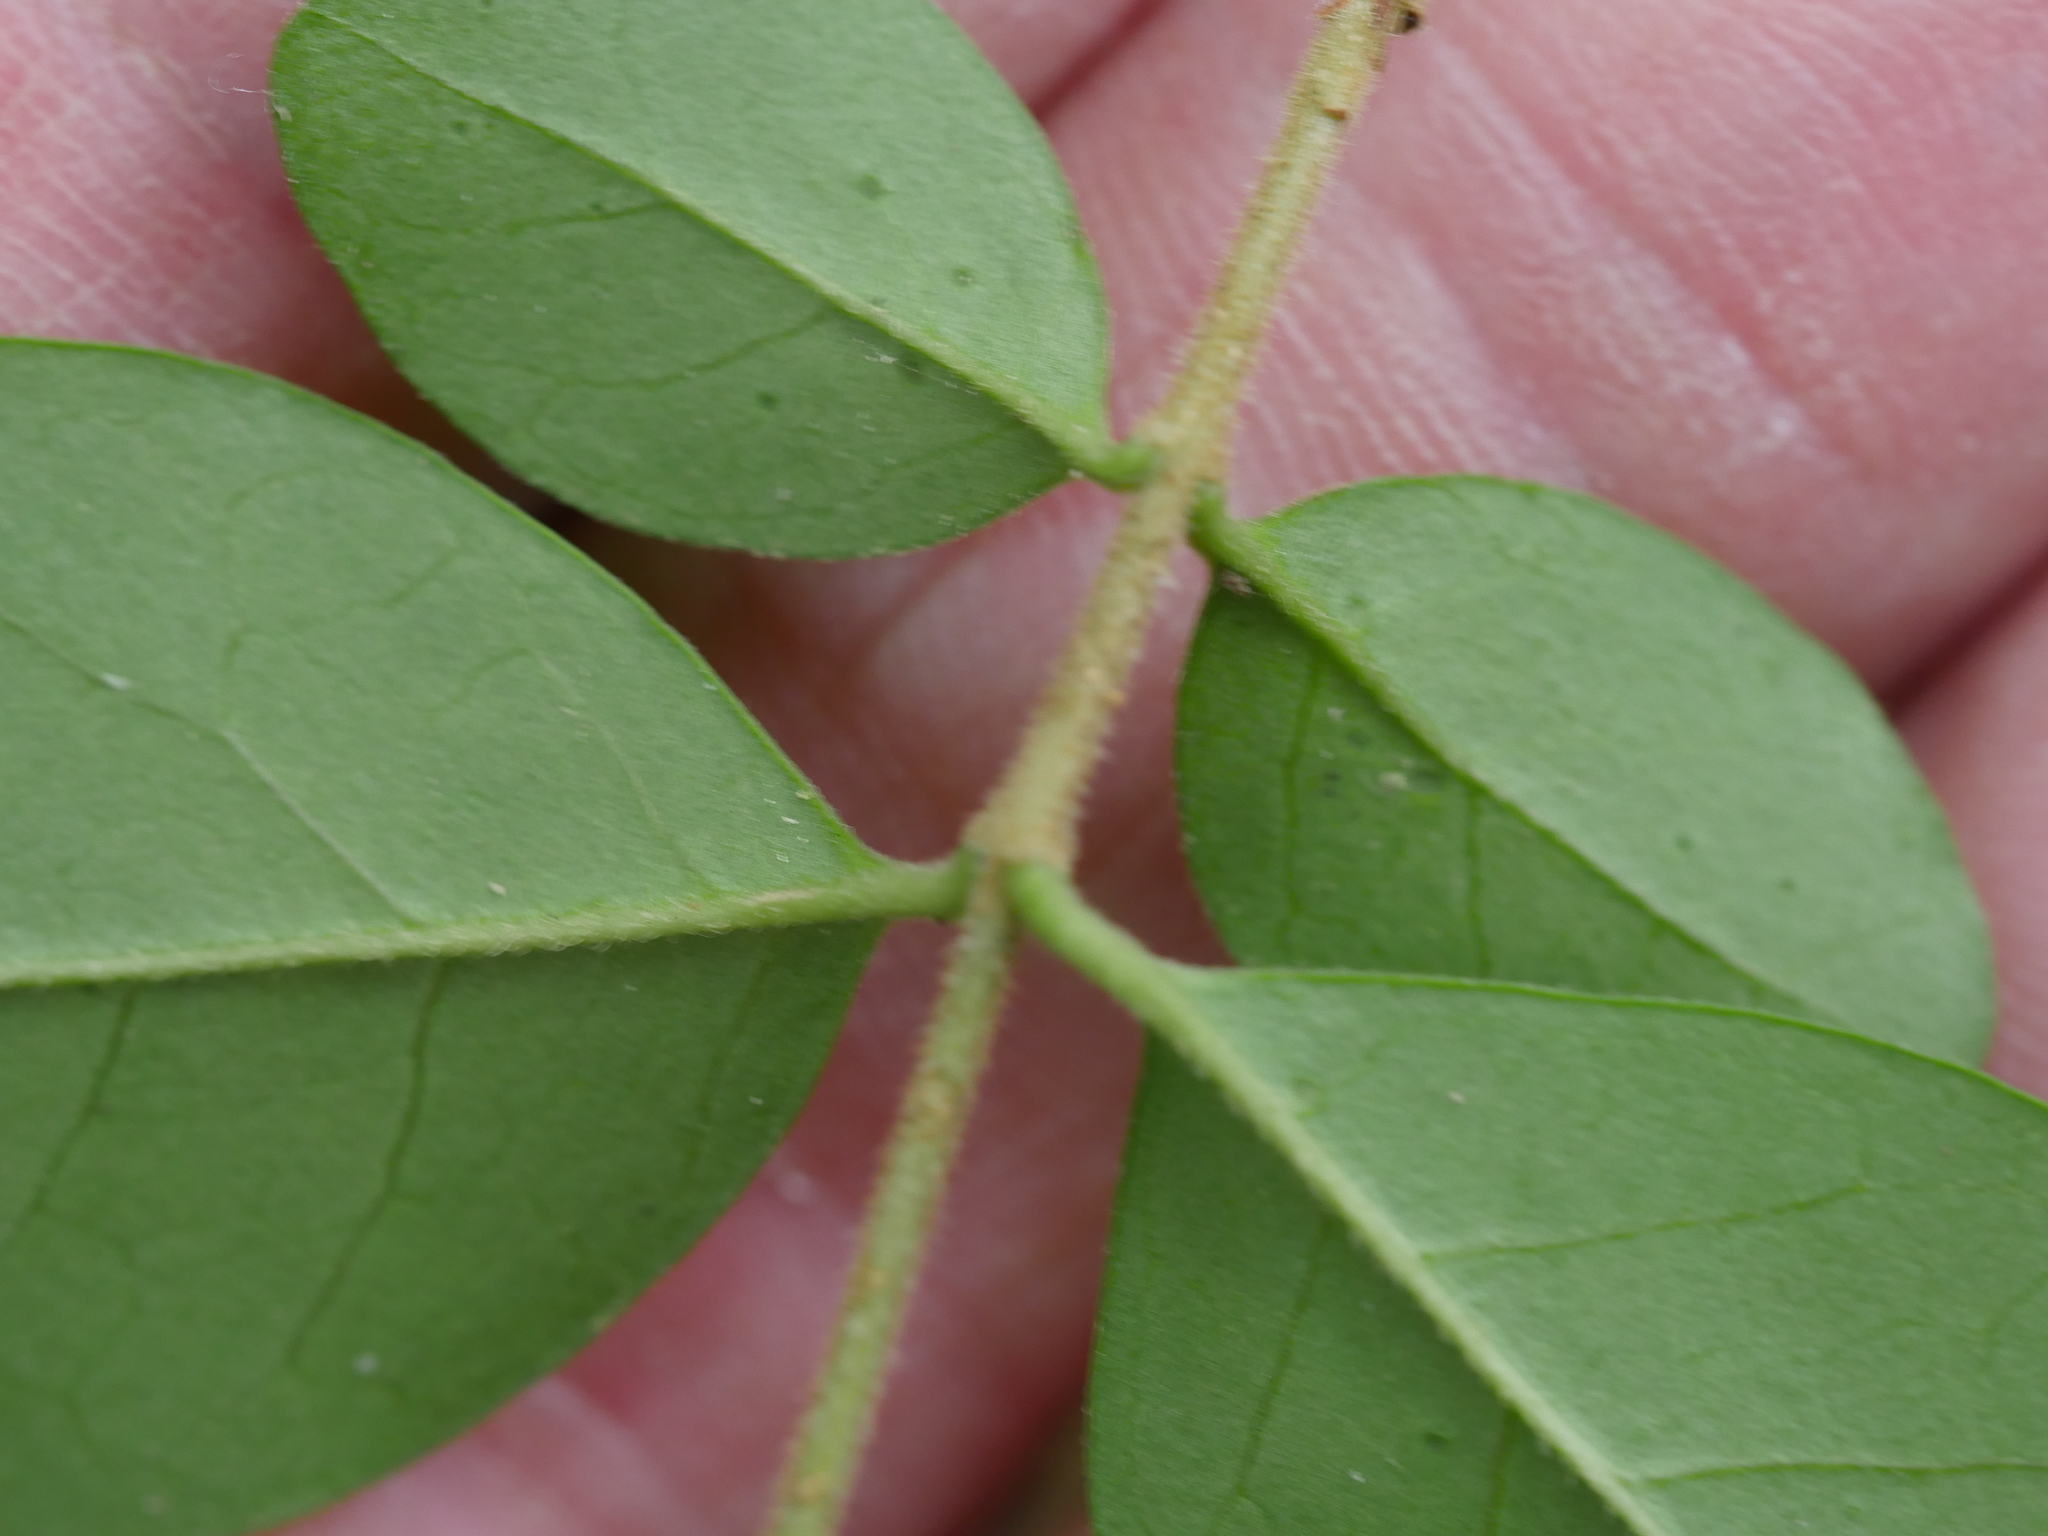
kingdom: Plantae
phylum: Tracheophyta
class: Magnoliopsida
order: Lamiales
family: Oleaceae
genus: Ligustrum
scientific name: Ligustrum sinense
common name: Chinese privet
